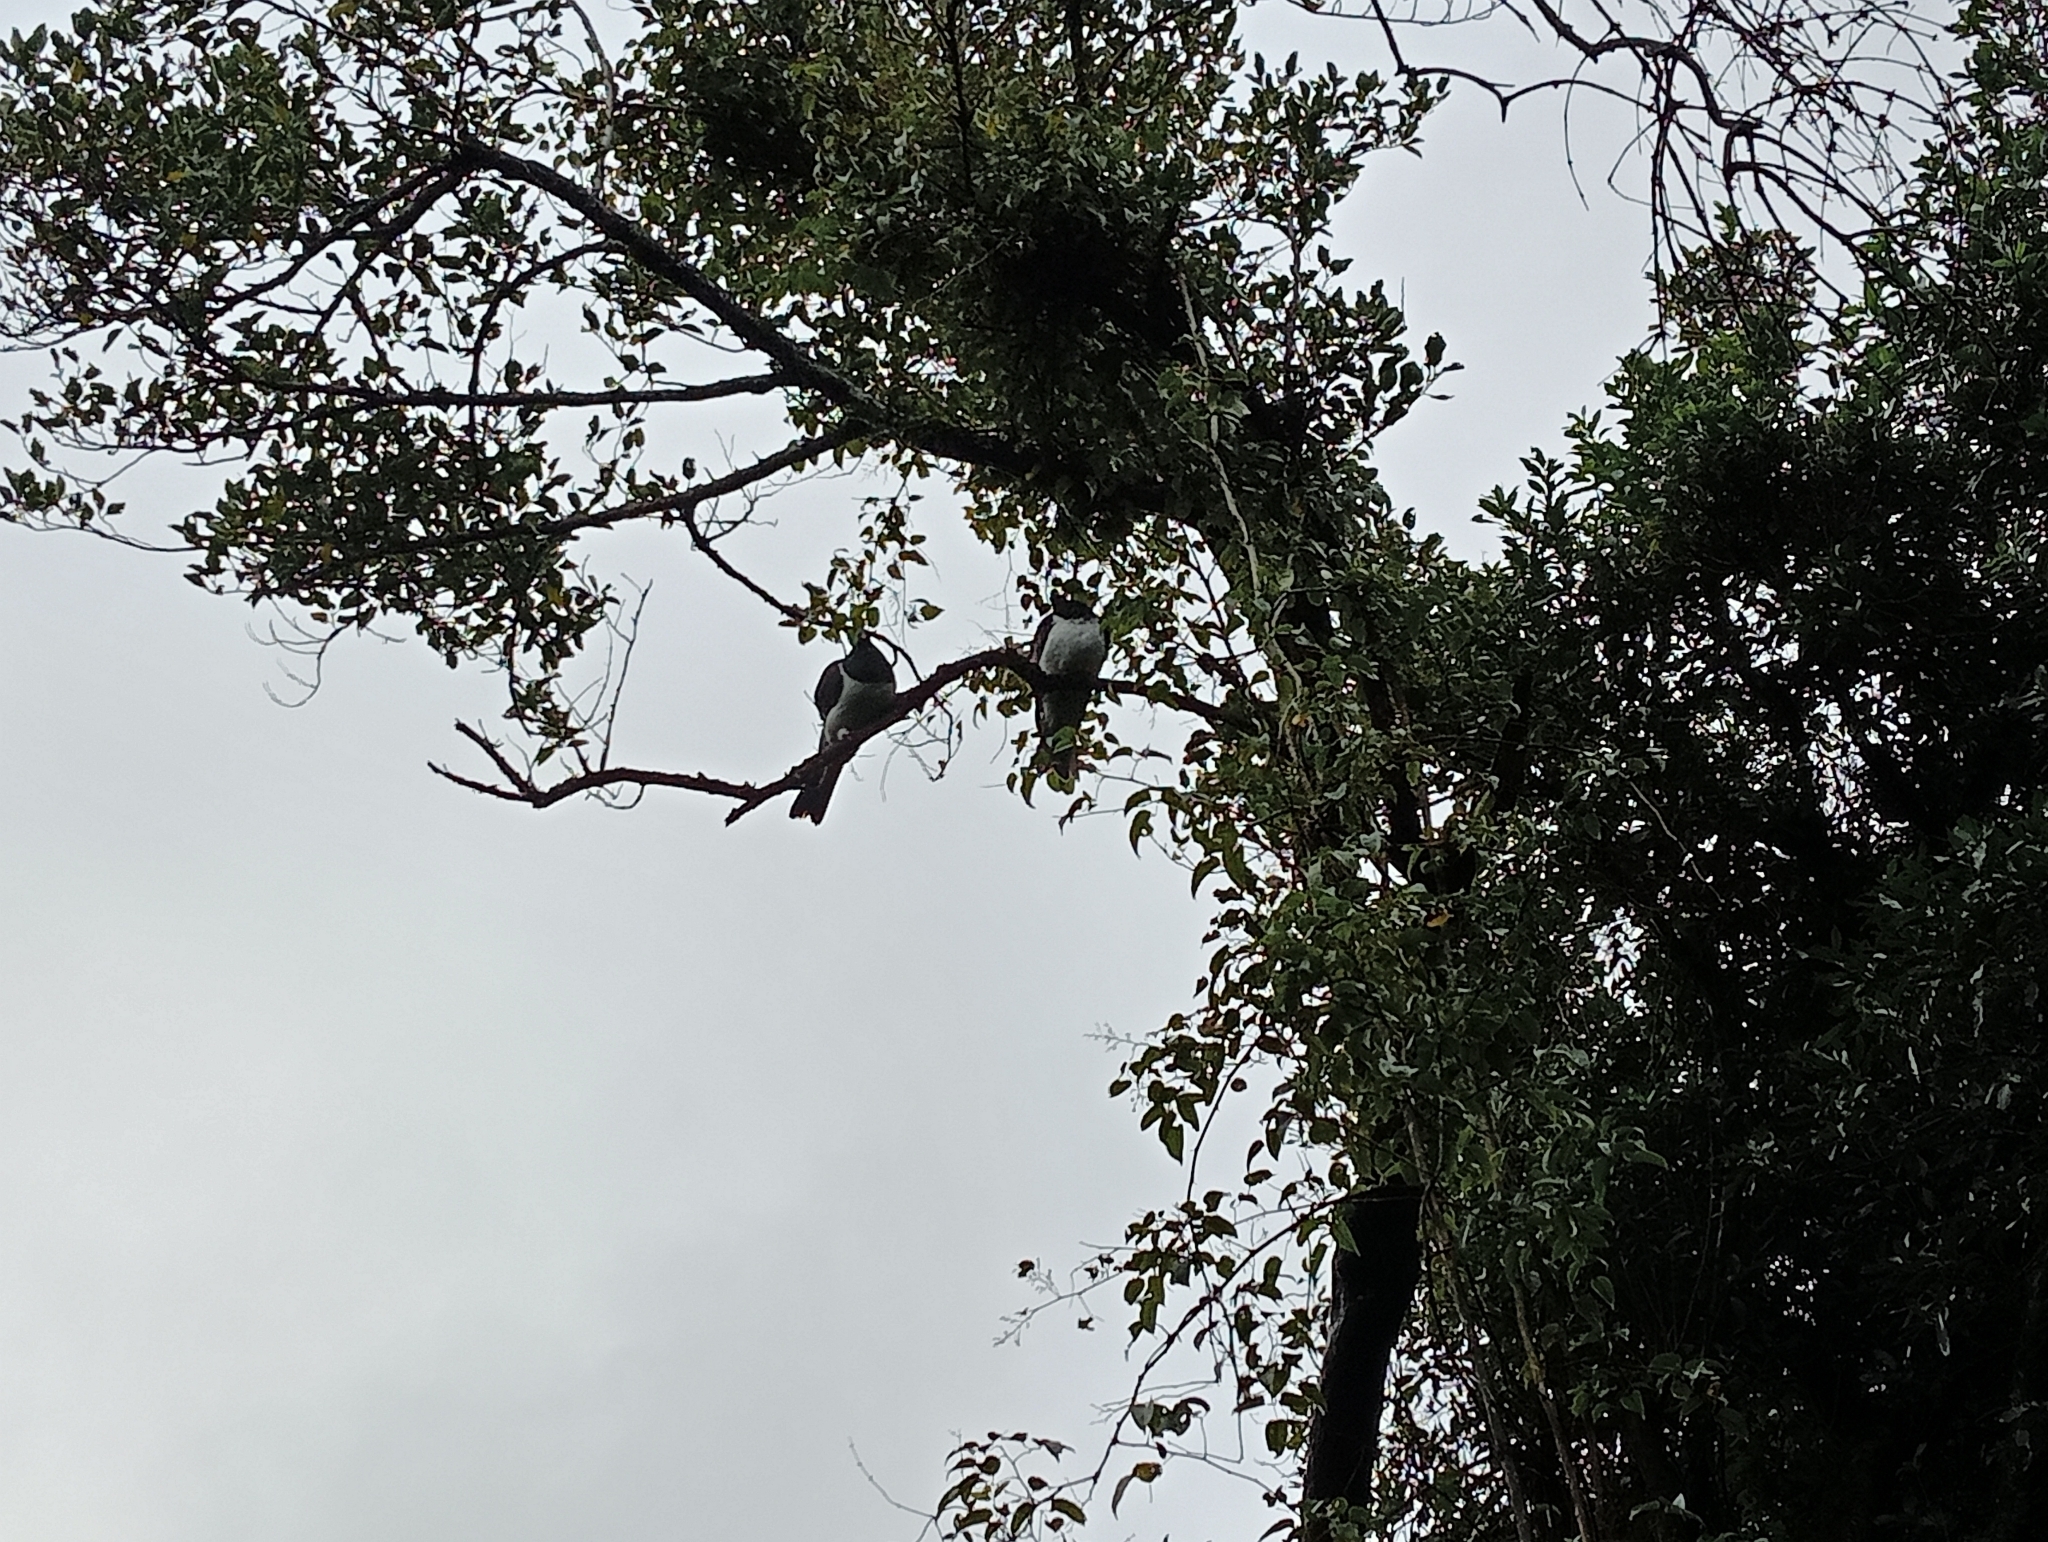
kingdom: Animalia
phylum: Chordata
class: Aves
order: Columbiformes
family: Columbidae
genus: Hemiphaga
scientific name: Hemiphaga novaeseelandiae
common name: New zealand pigeon
